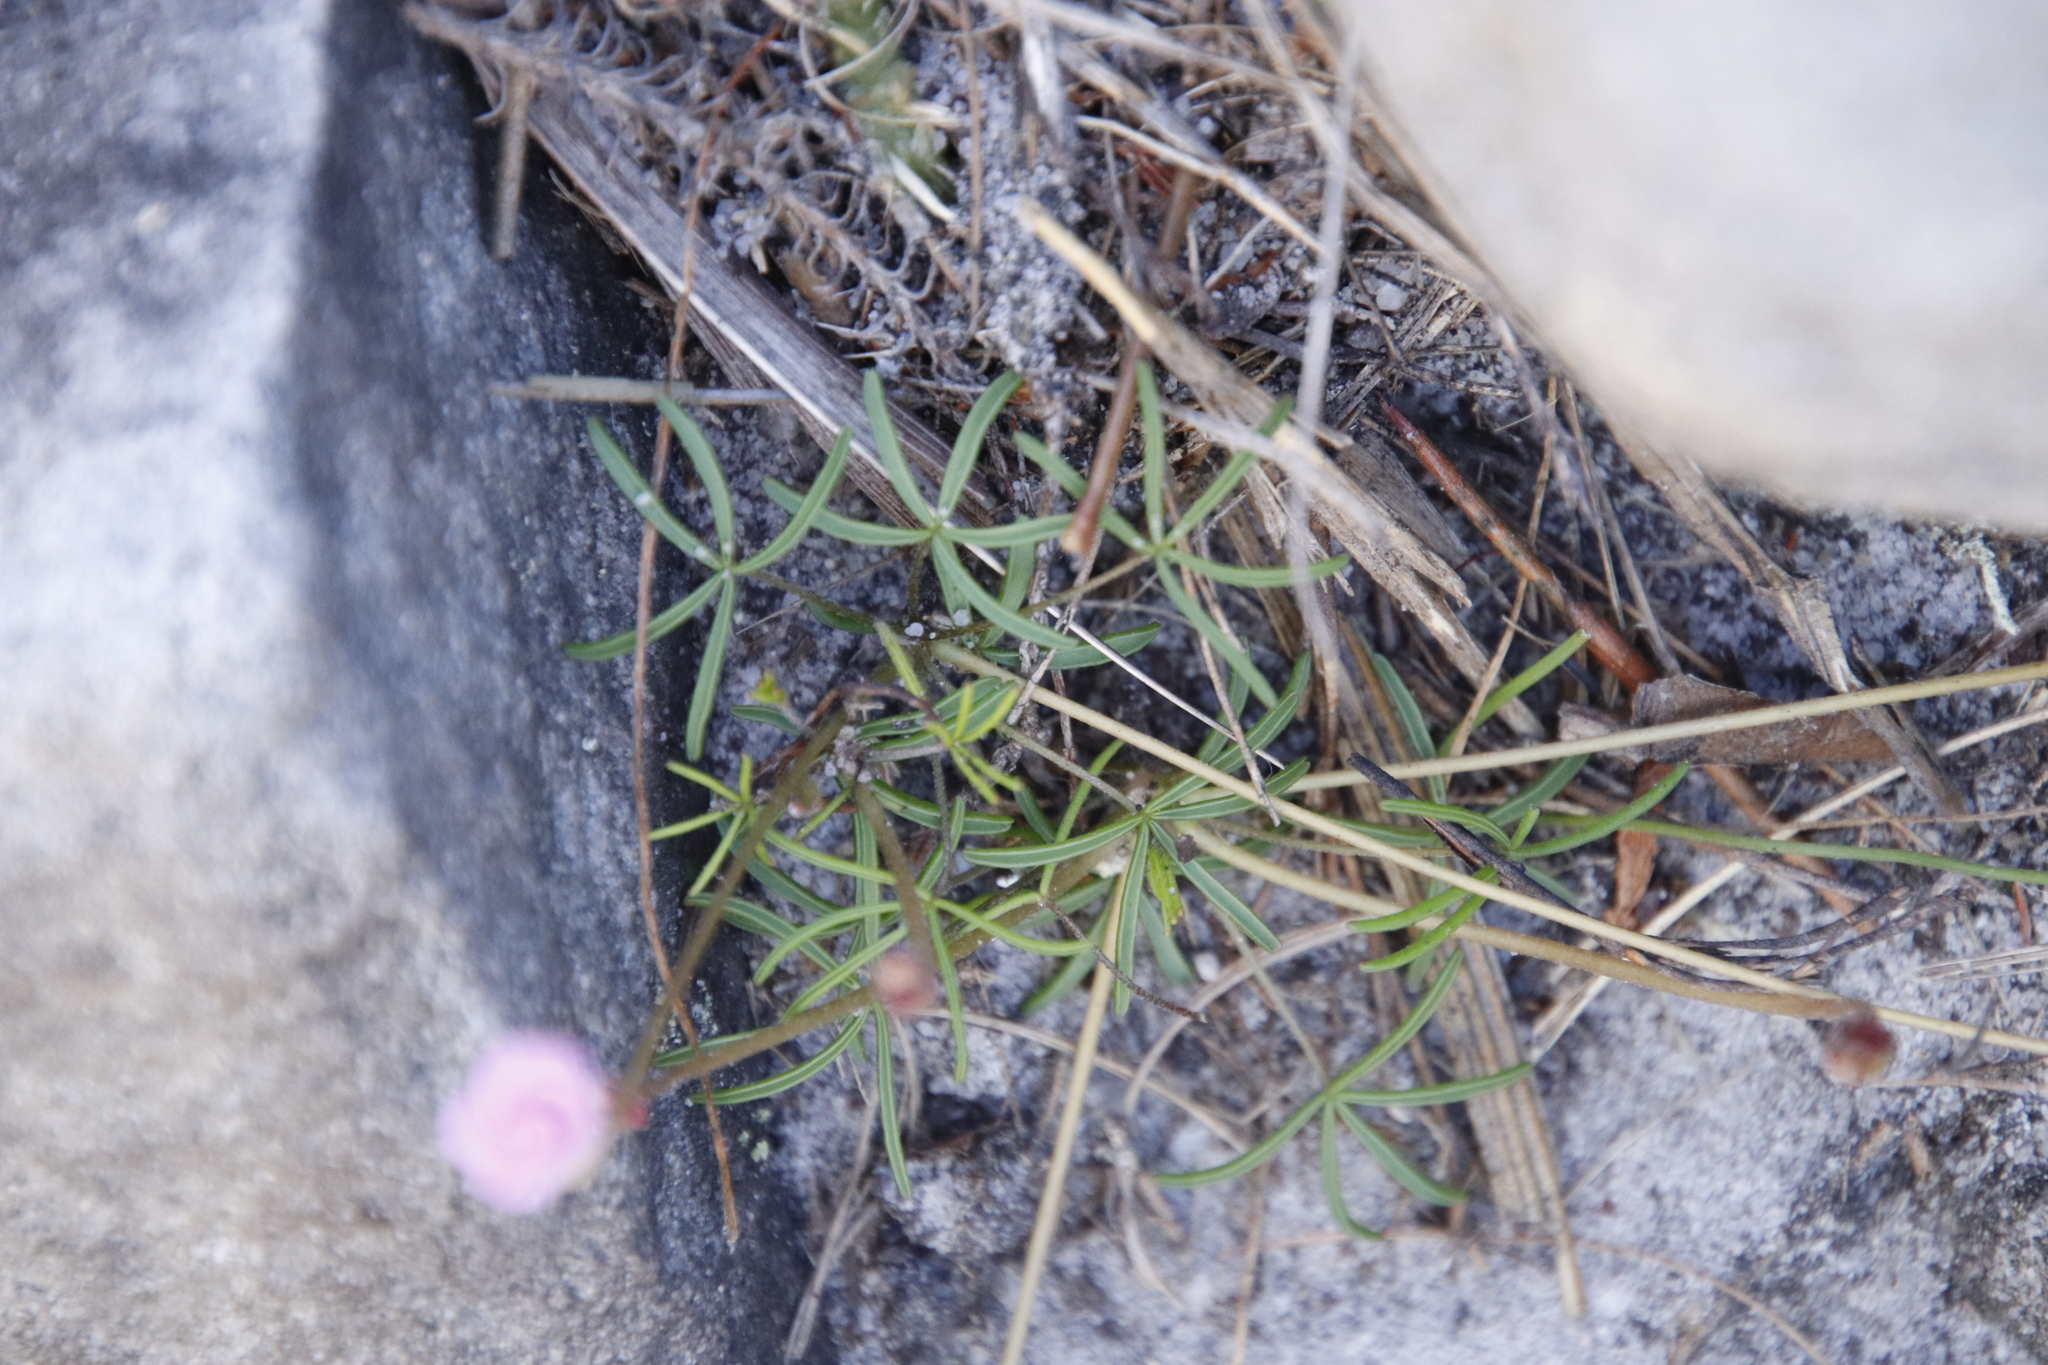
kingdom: Plantae
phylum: Tracheophyta
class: Magnoliopsida
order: Oxalidales
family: Oxalidaceae
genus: Oxalis
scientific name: Oxalis polyphylla
